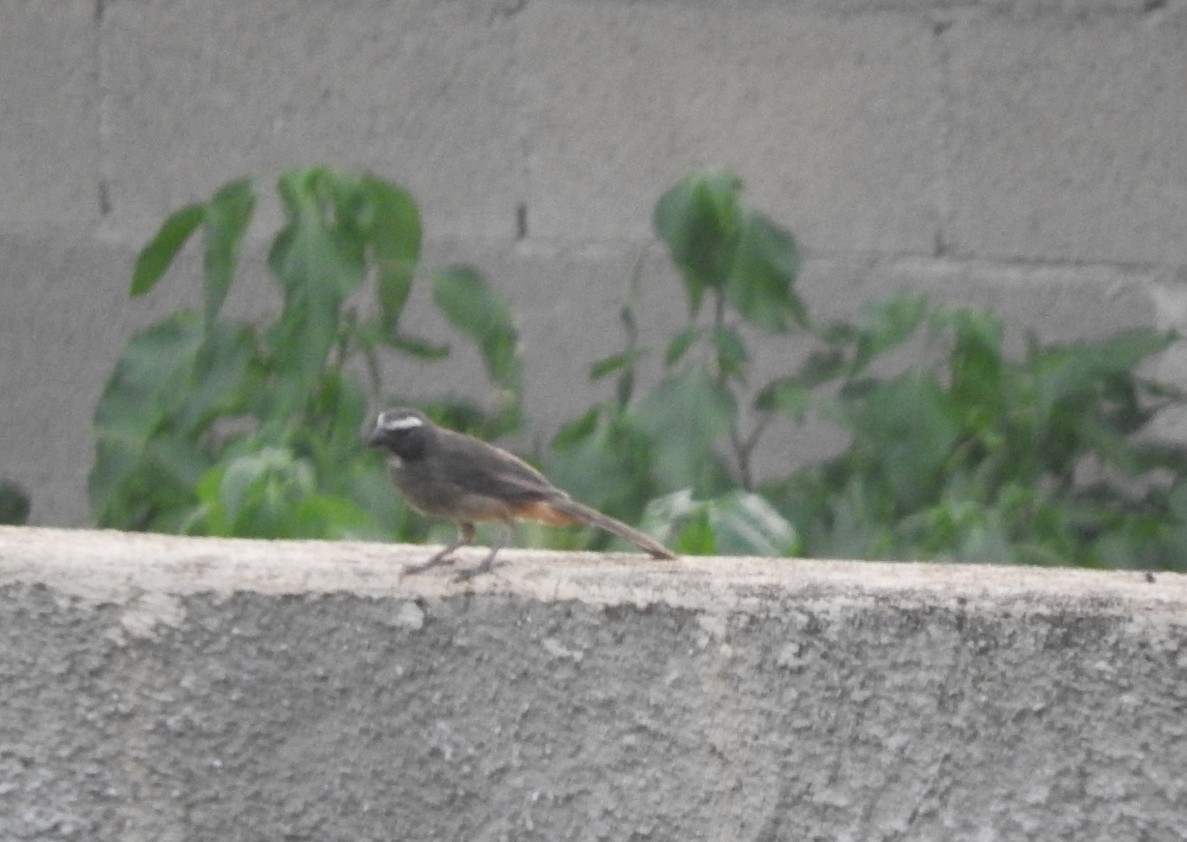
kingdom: Animalia
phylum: Chordata
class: Aves
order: Passeriformes
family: Thraupidae
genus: Saltator
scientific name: Saltator grandis
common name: Cinnamon-bellied saltator
